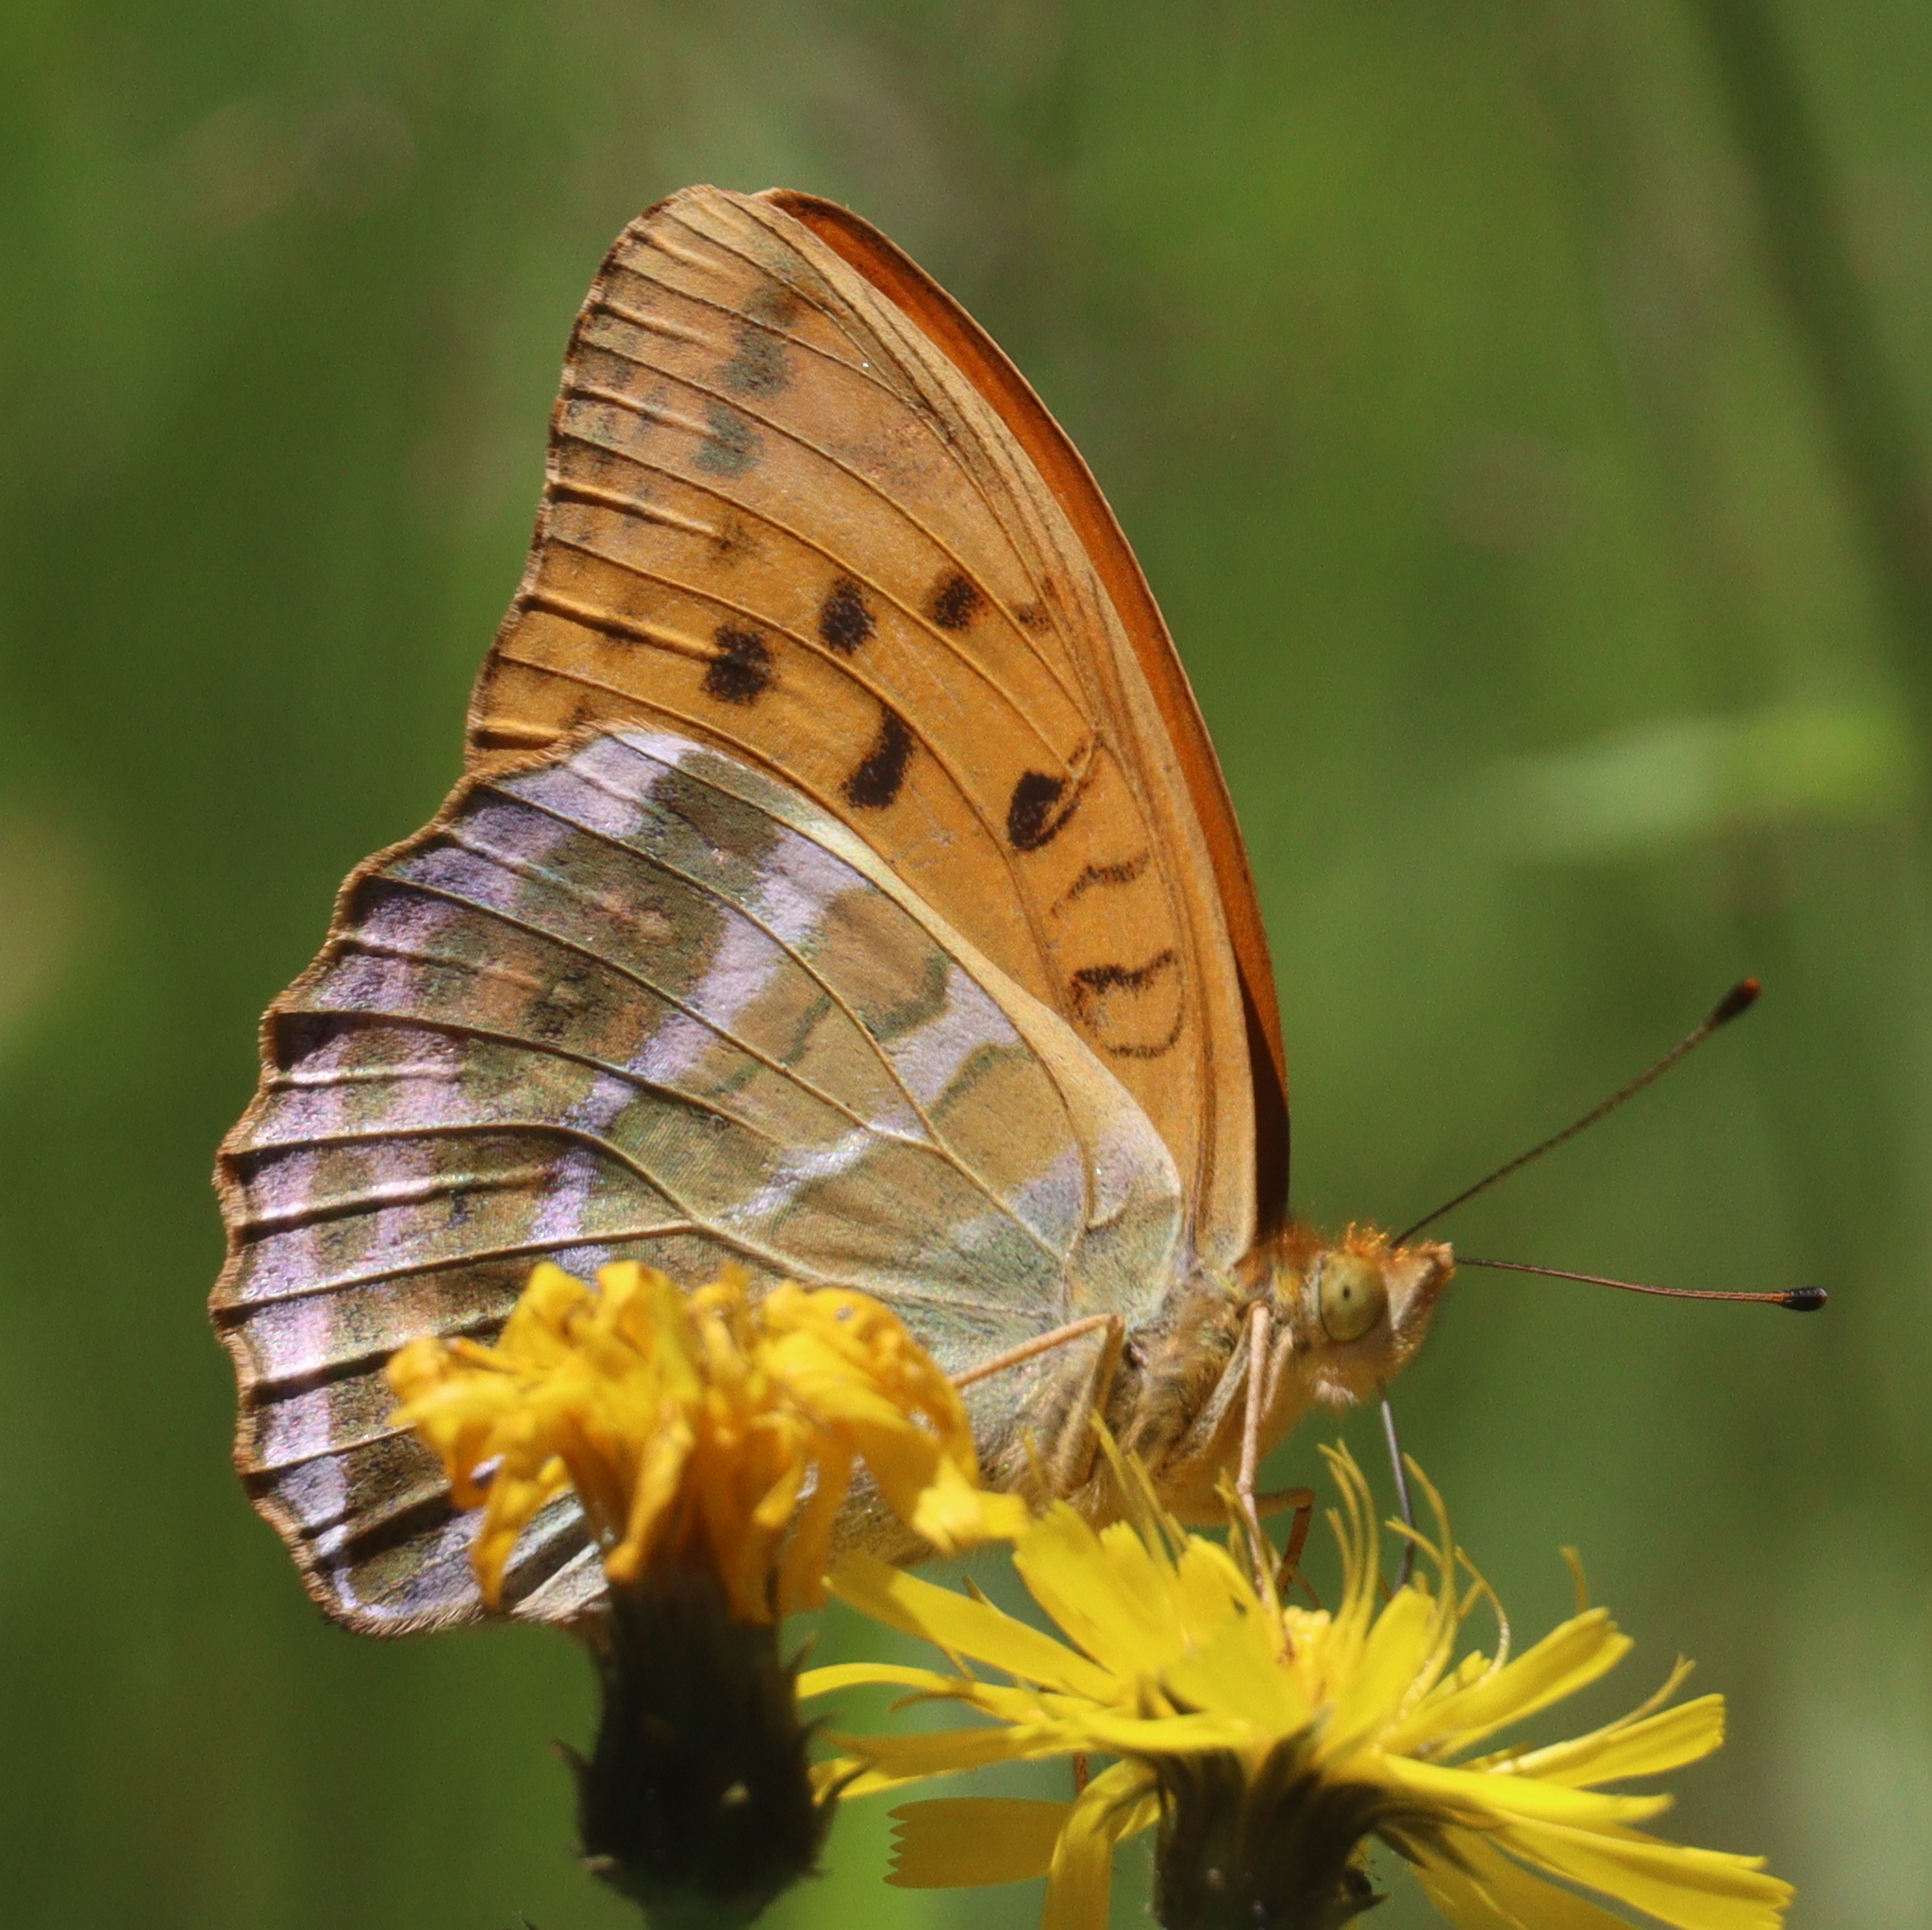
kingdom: Animalia
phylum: Arthropoda
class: Insecta
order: Lepidoptera
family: Nymphalidae
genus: Argynnis
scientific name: Argynnis paphia
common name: Silver-washed fritillary
